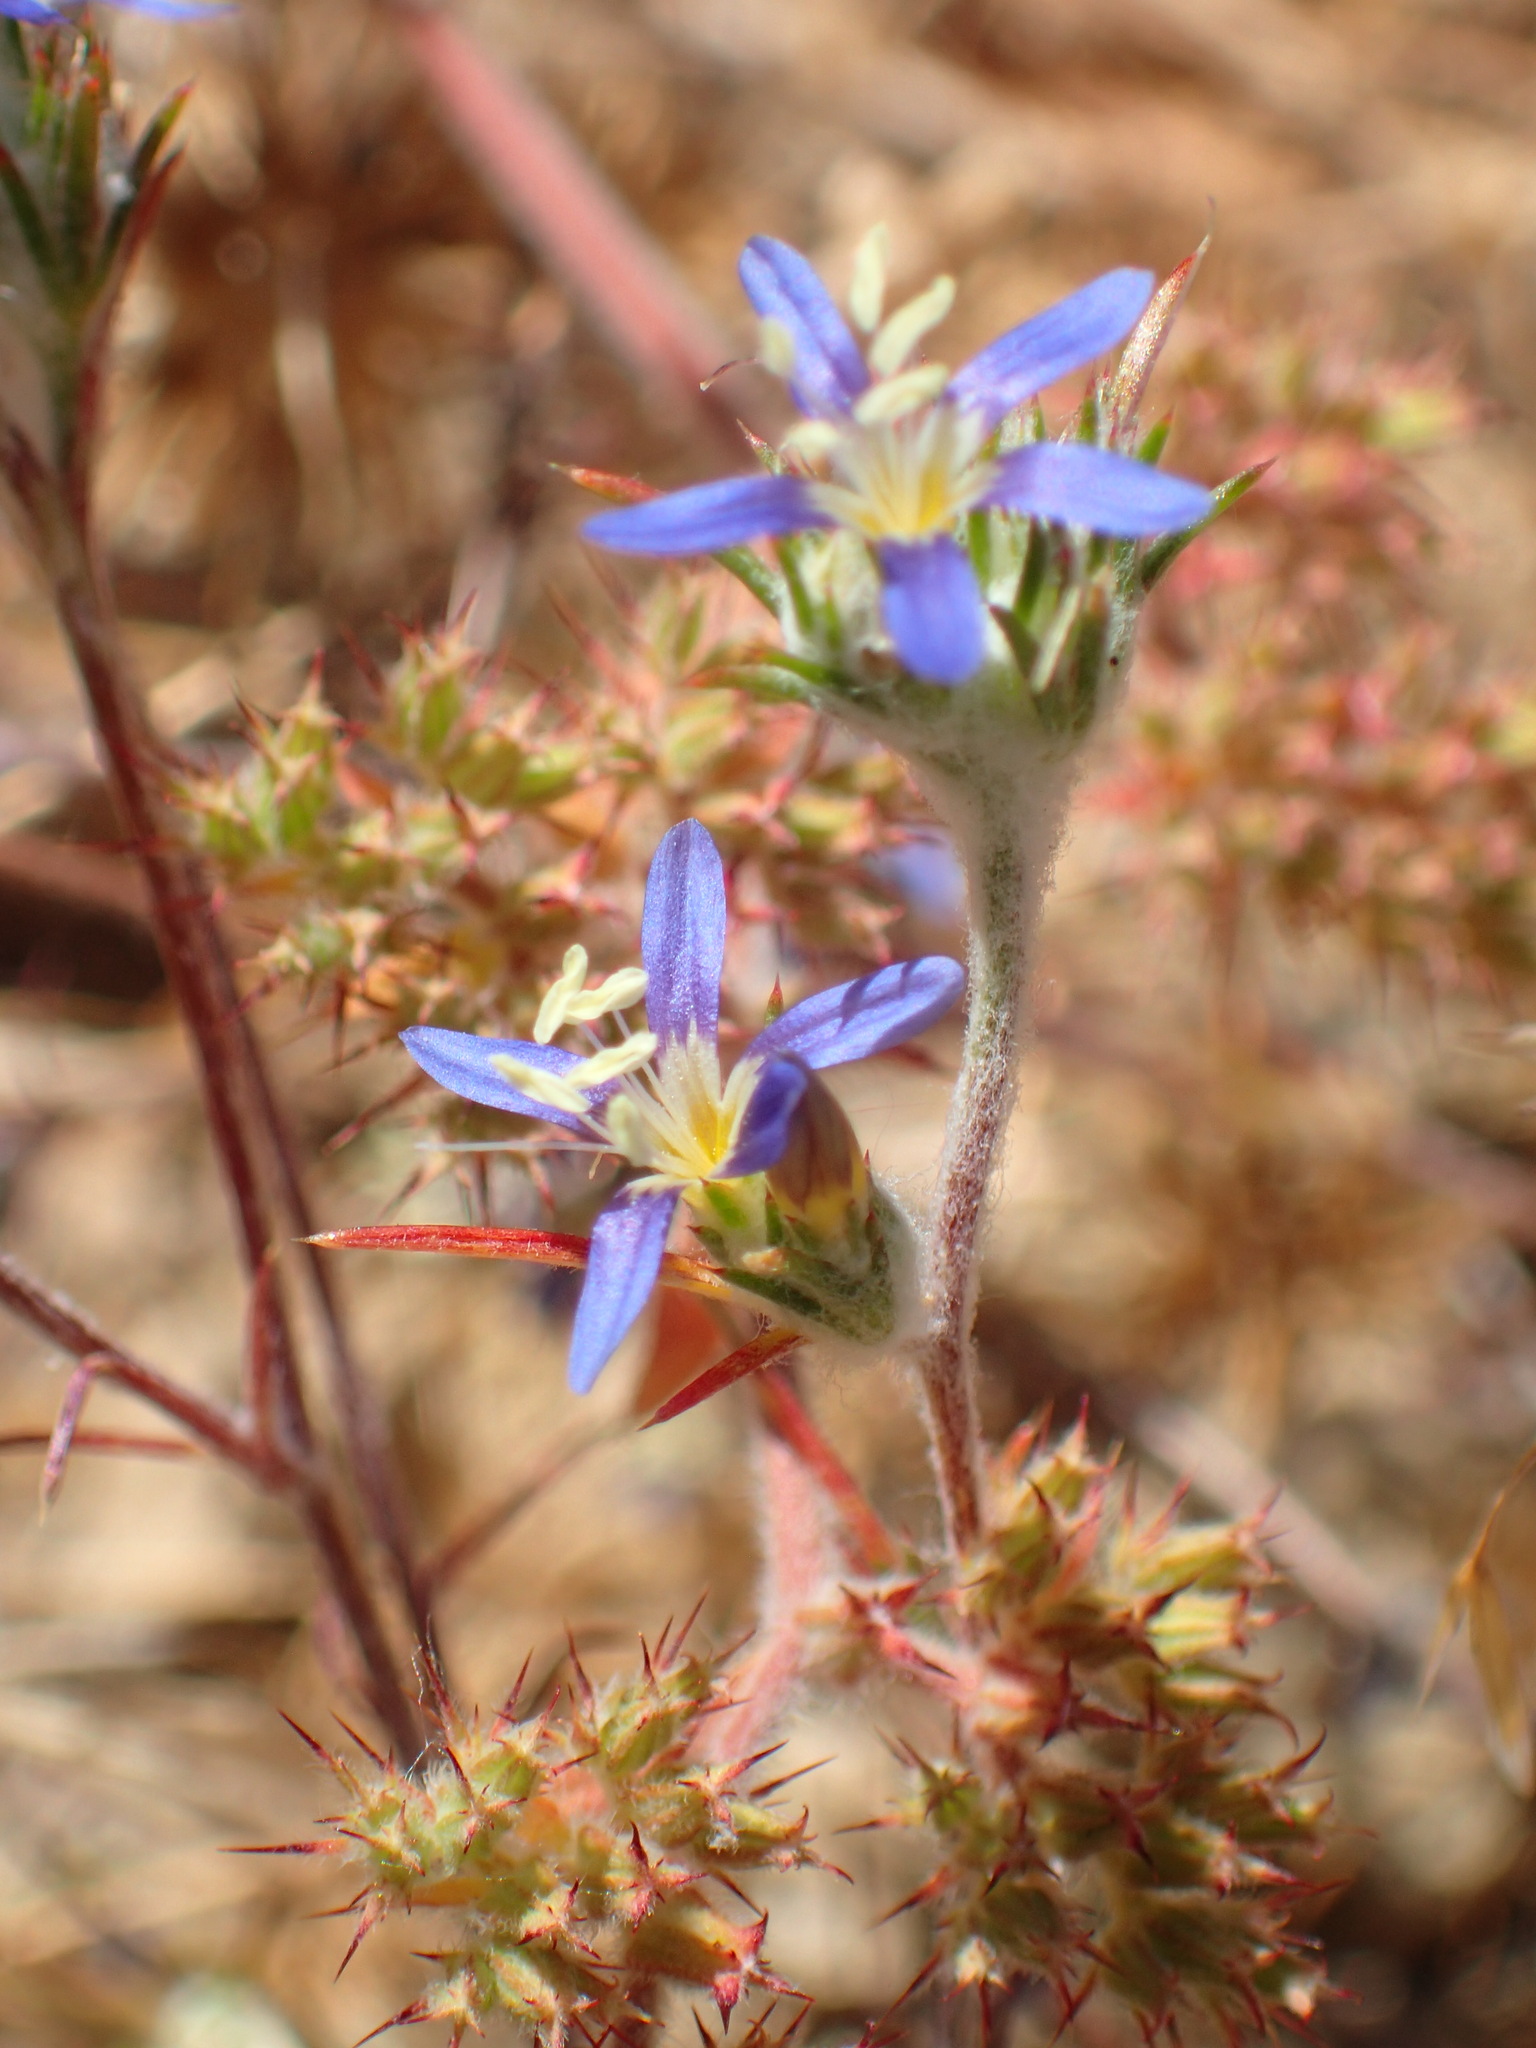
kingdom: Plantae
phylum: Tracheophyta
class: Magnoliopsida
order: Ericales
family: Polemoniaceae
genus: Eriastrum
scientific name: Eriastrum sapphirinum
